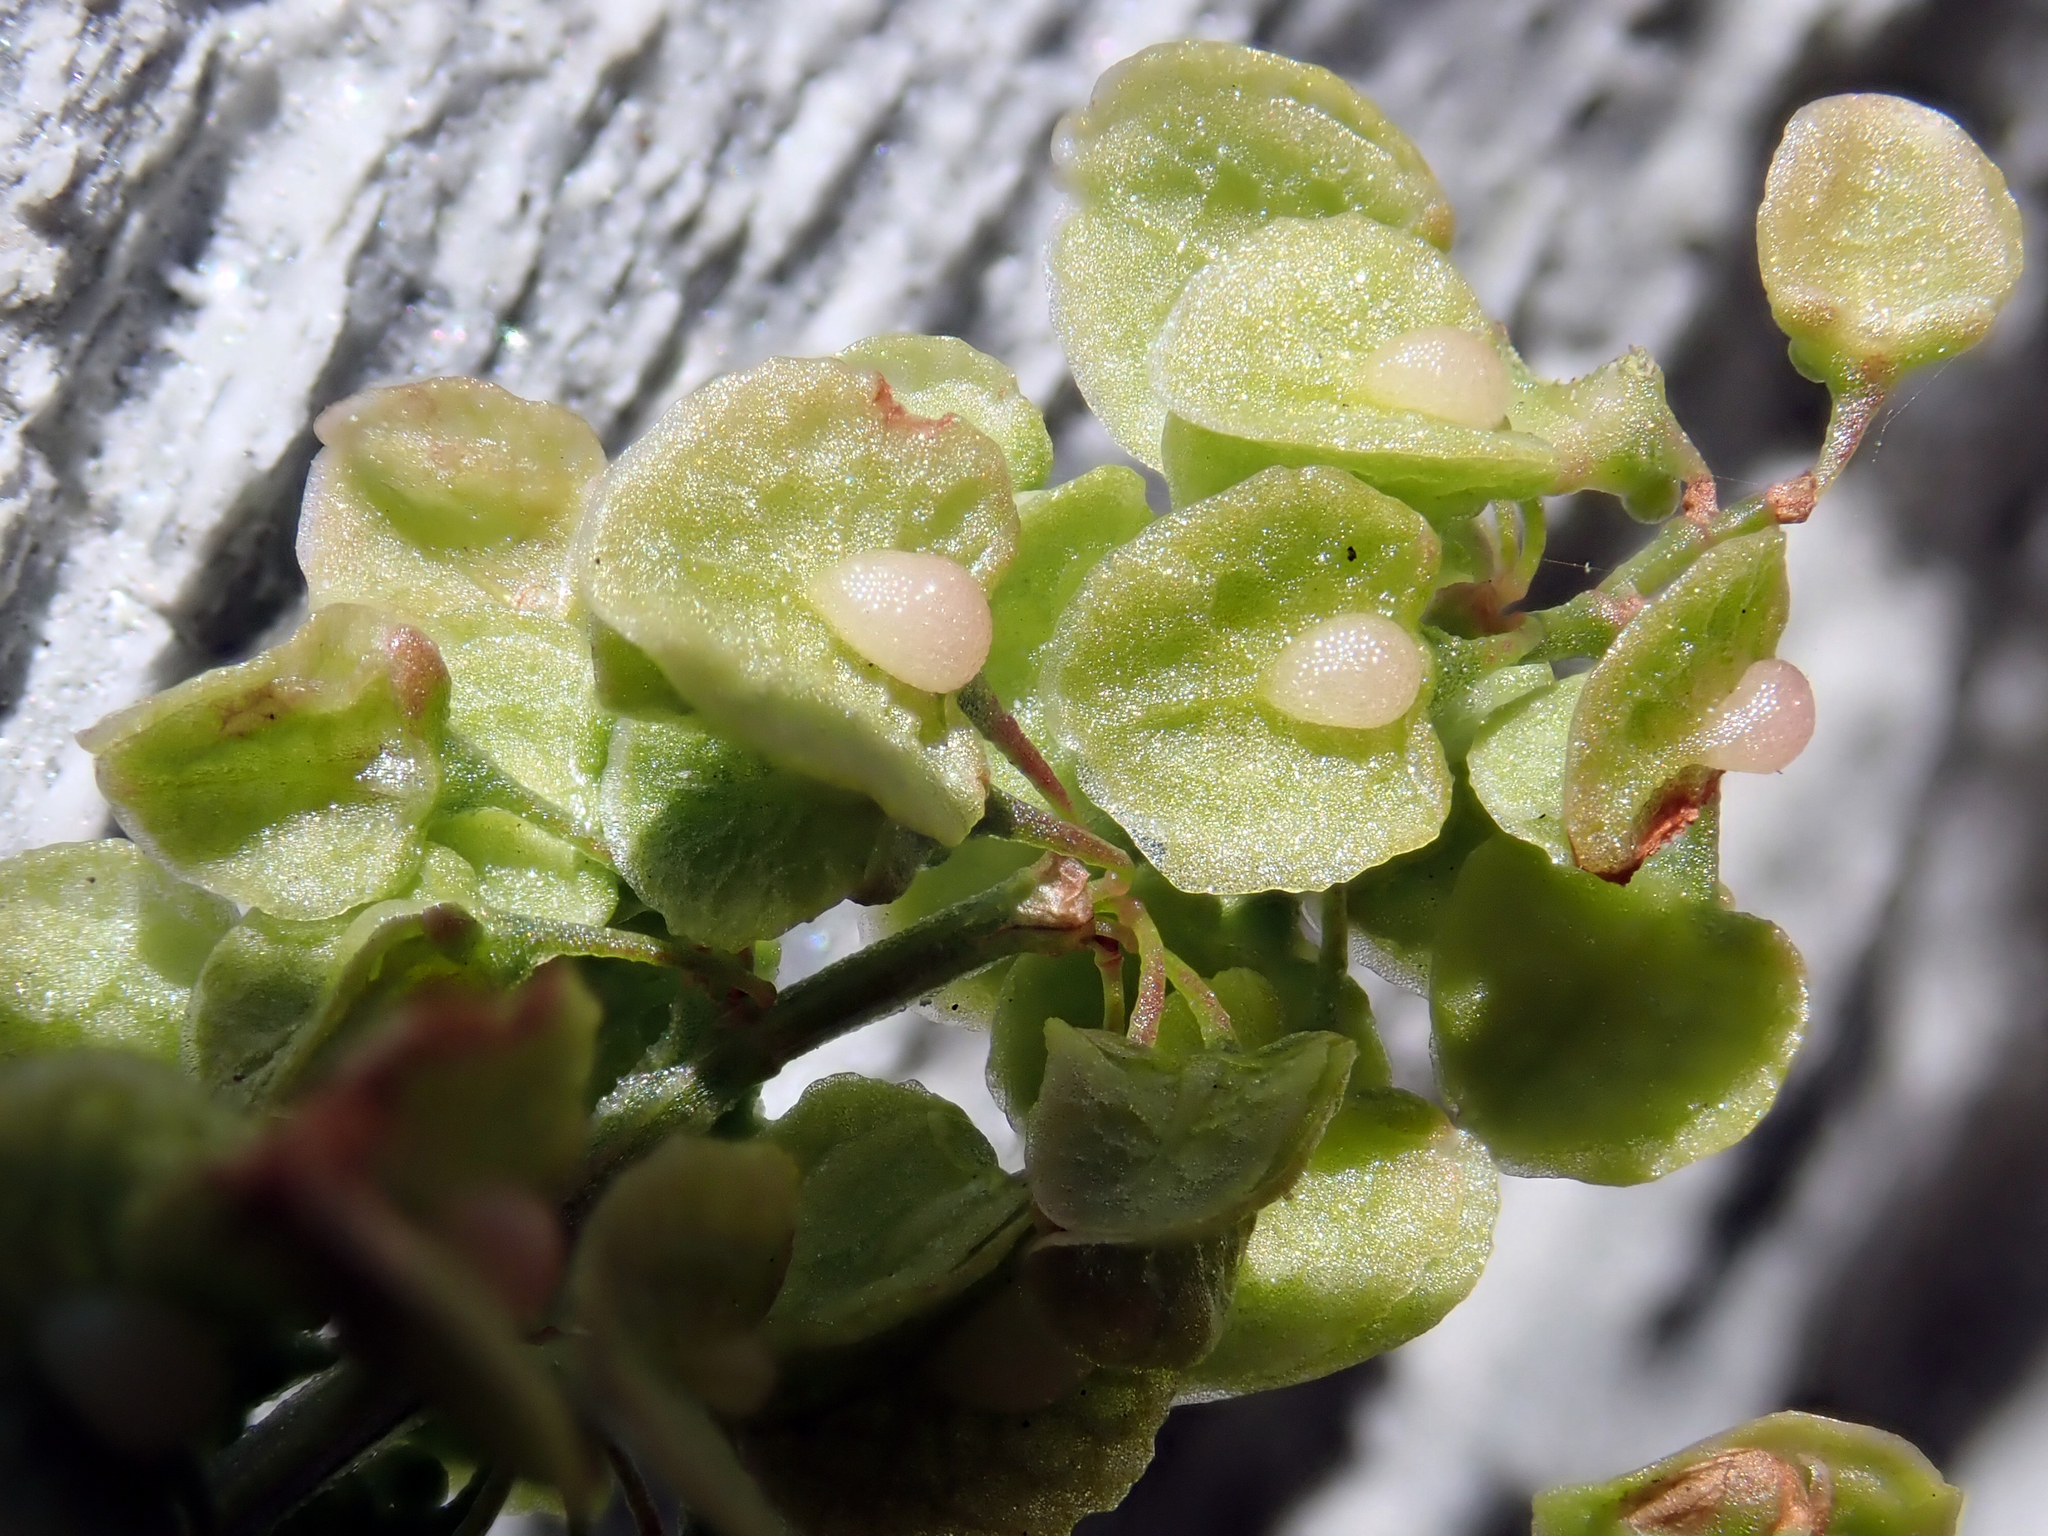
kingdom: Plantae
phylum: Tracheophyta
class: Magnoliopsida
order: Caryophyllales
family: Polygonaceae
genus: Rumex
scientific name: Rumex crispus
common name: Curled dock
